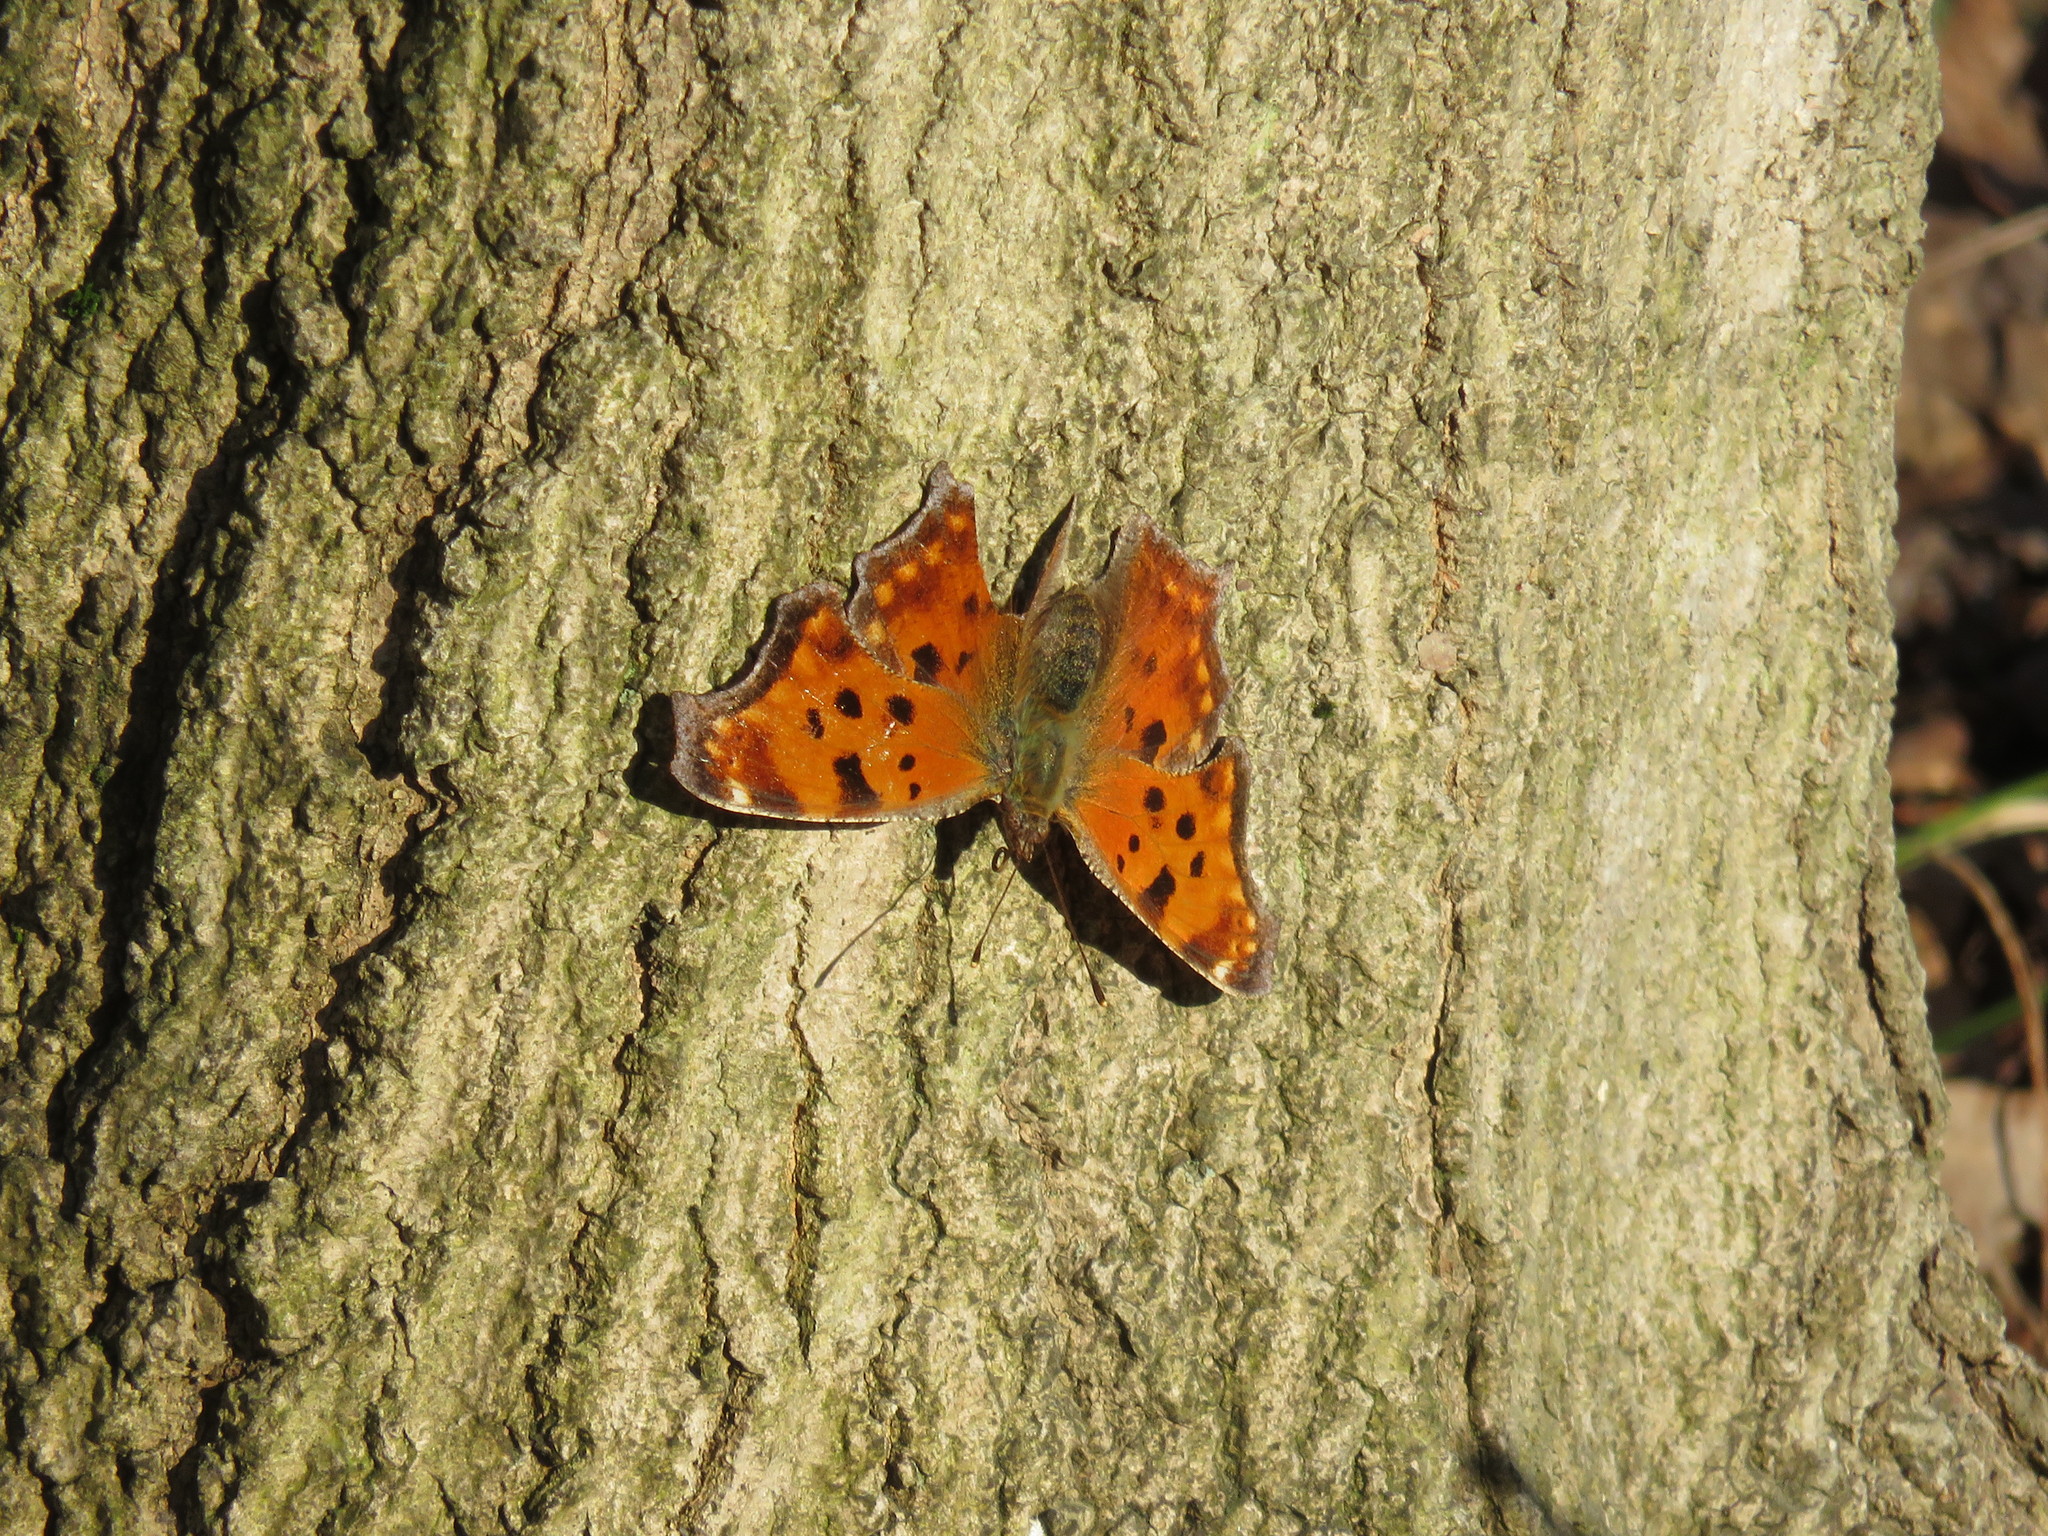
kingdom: Animalia
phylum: Arthropoda
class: Insecta
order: Lepidoptera
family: Nymphalidae
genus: Polygonia
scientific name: Polygonia comma
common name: Eastern comma
